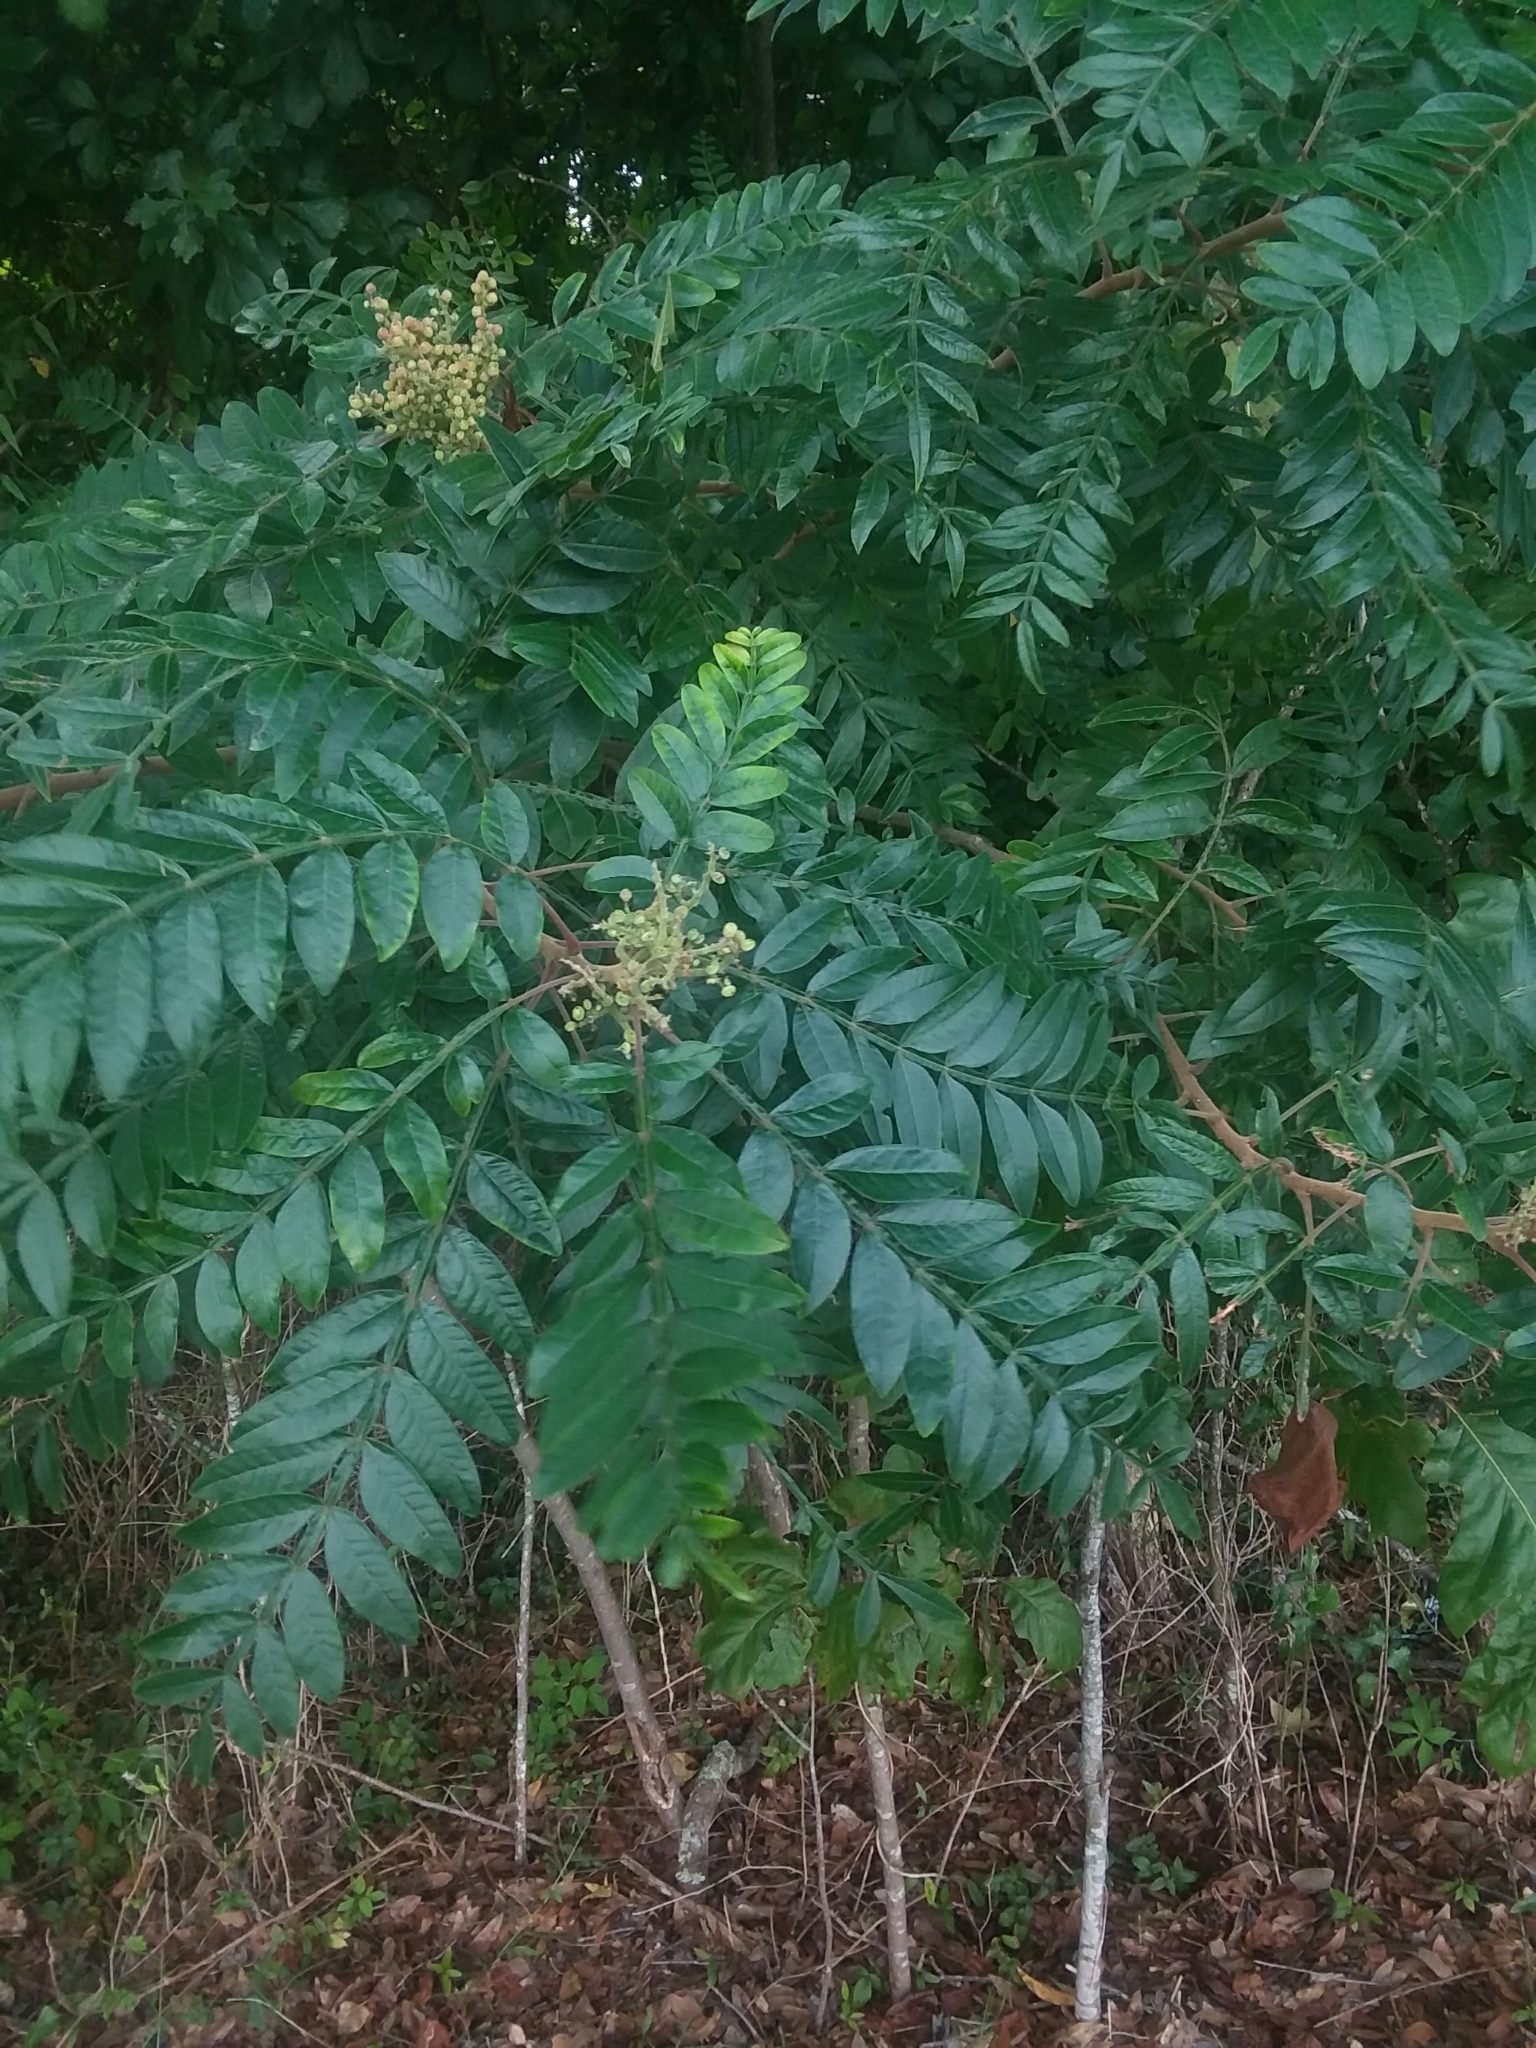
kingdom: Plantae
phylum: Tracheophyta
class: Magnoliopsida
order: Sapindales
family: Anacardiaceae
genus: Rhus
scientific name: Rhus copallina
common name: Shining sumac
